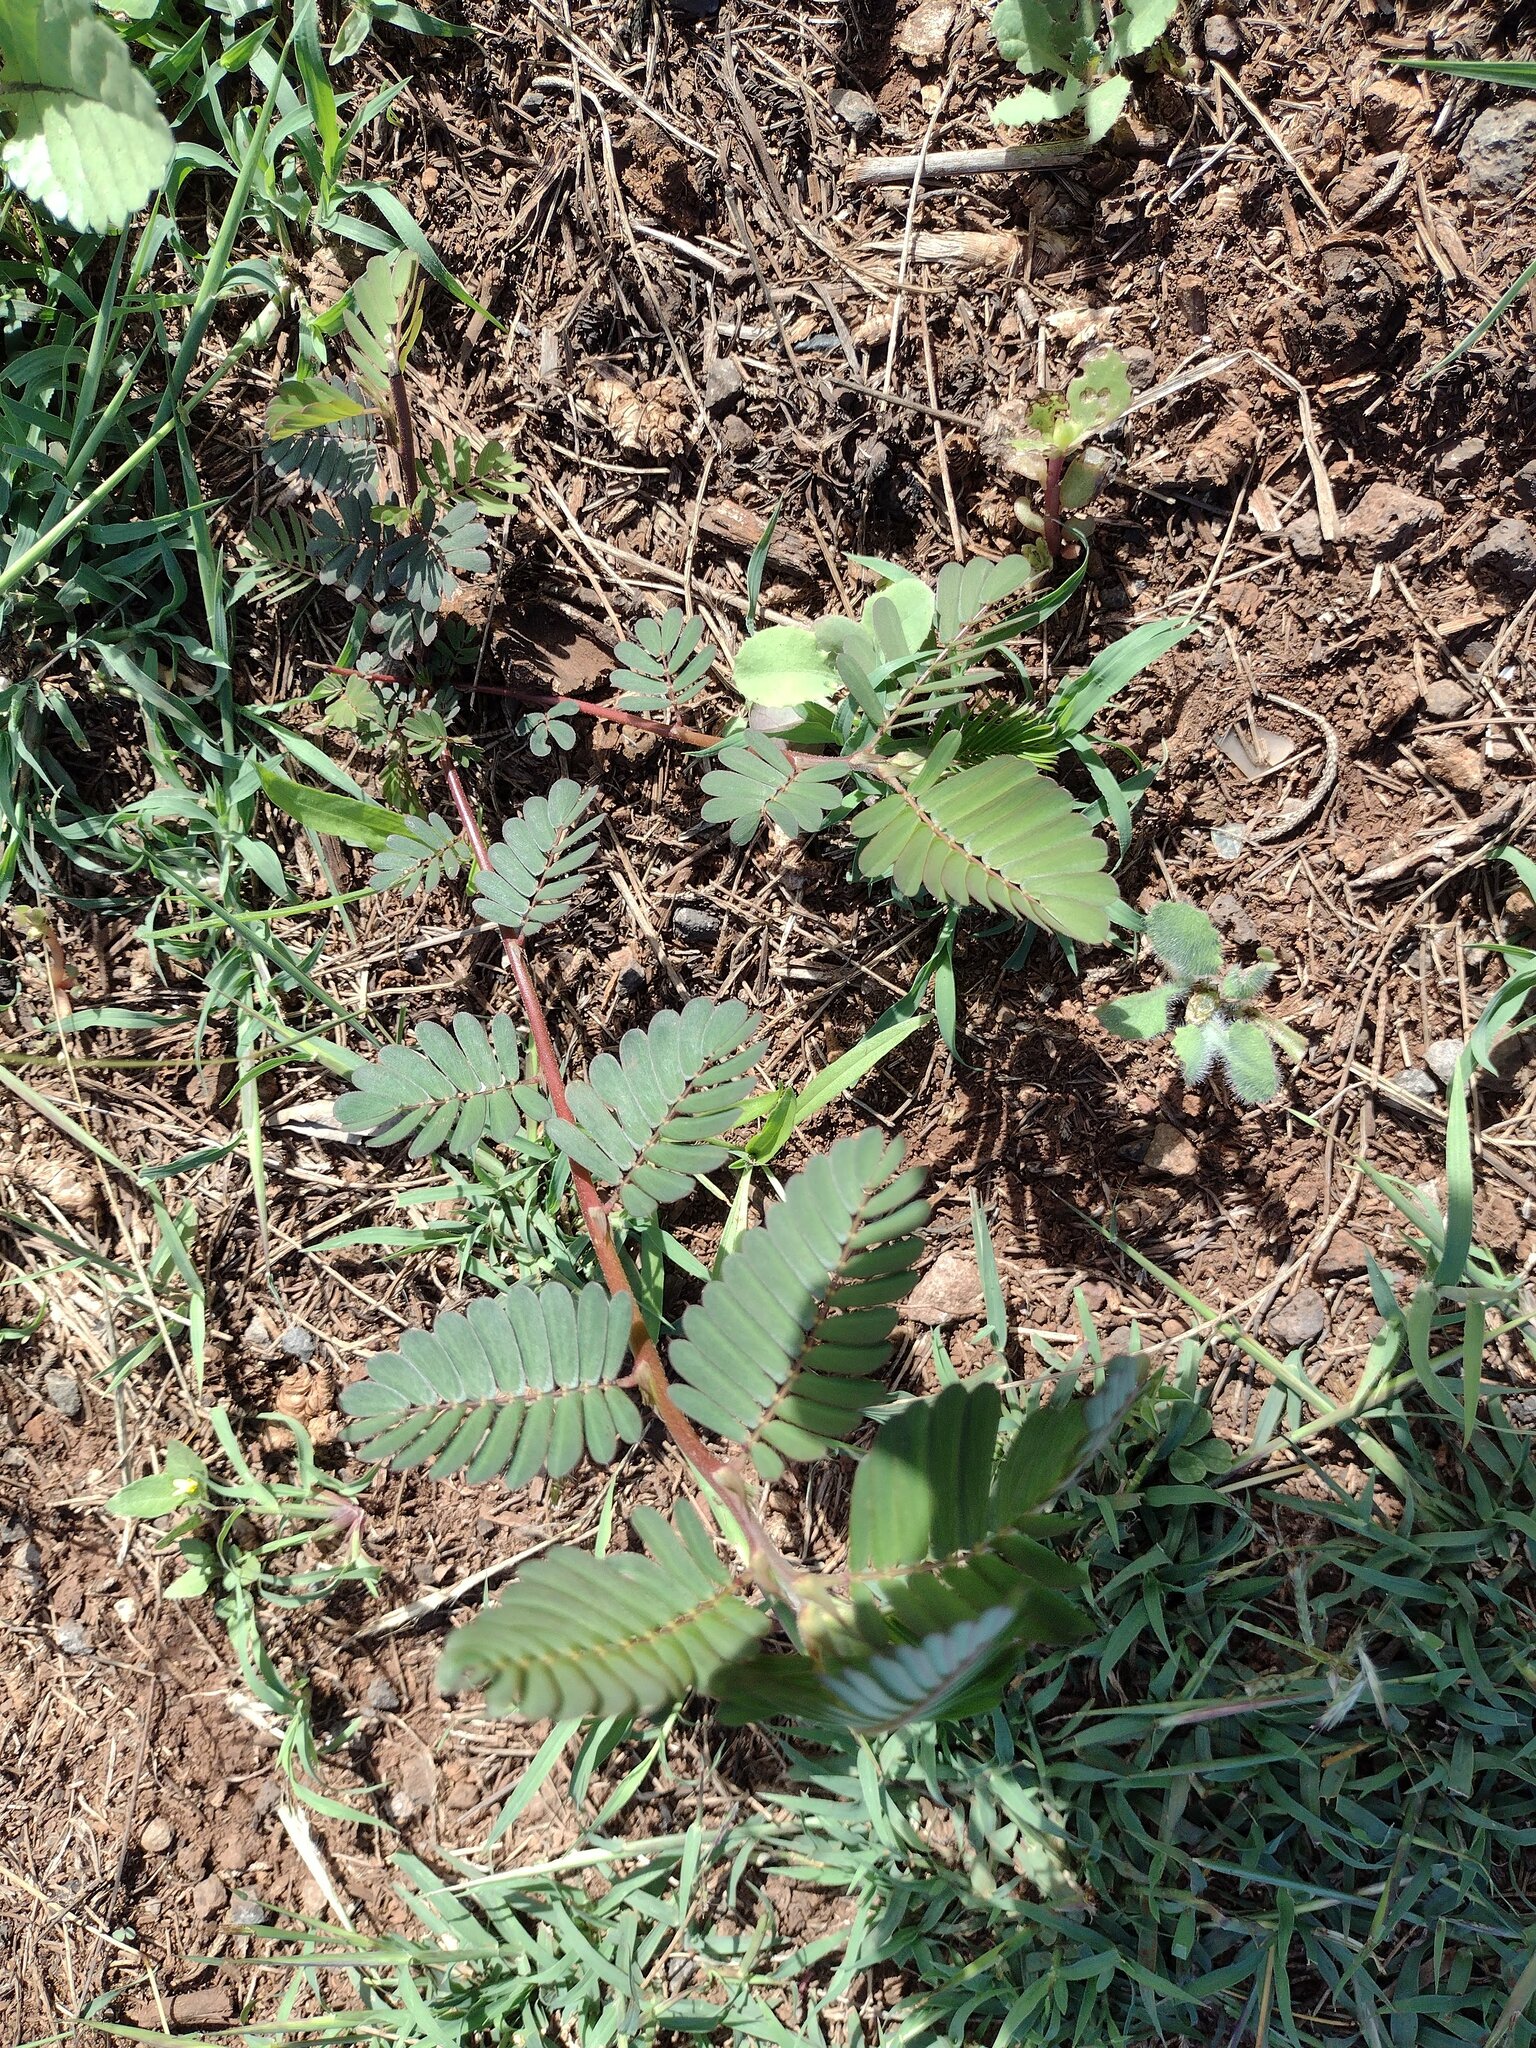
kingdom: Plantae
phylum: Tracheophyta
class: Magnoliopsida
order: Fabales
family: Fabaceae
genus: Chamaecrista
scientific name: Chamaecrista nictitans
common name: Sensitive cassia
